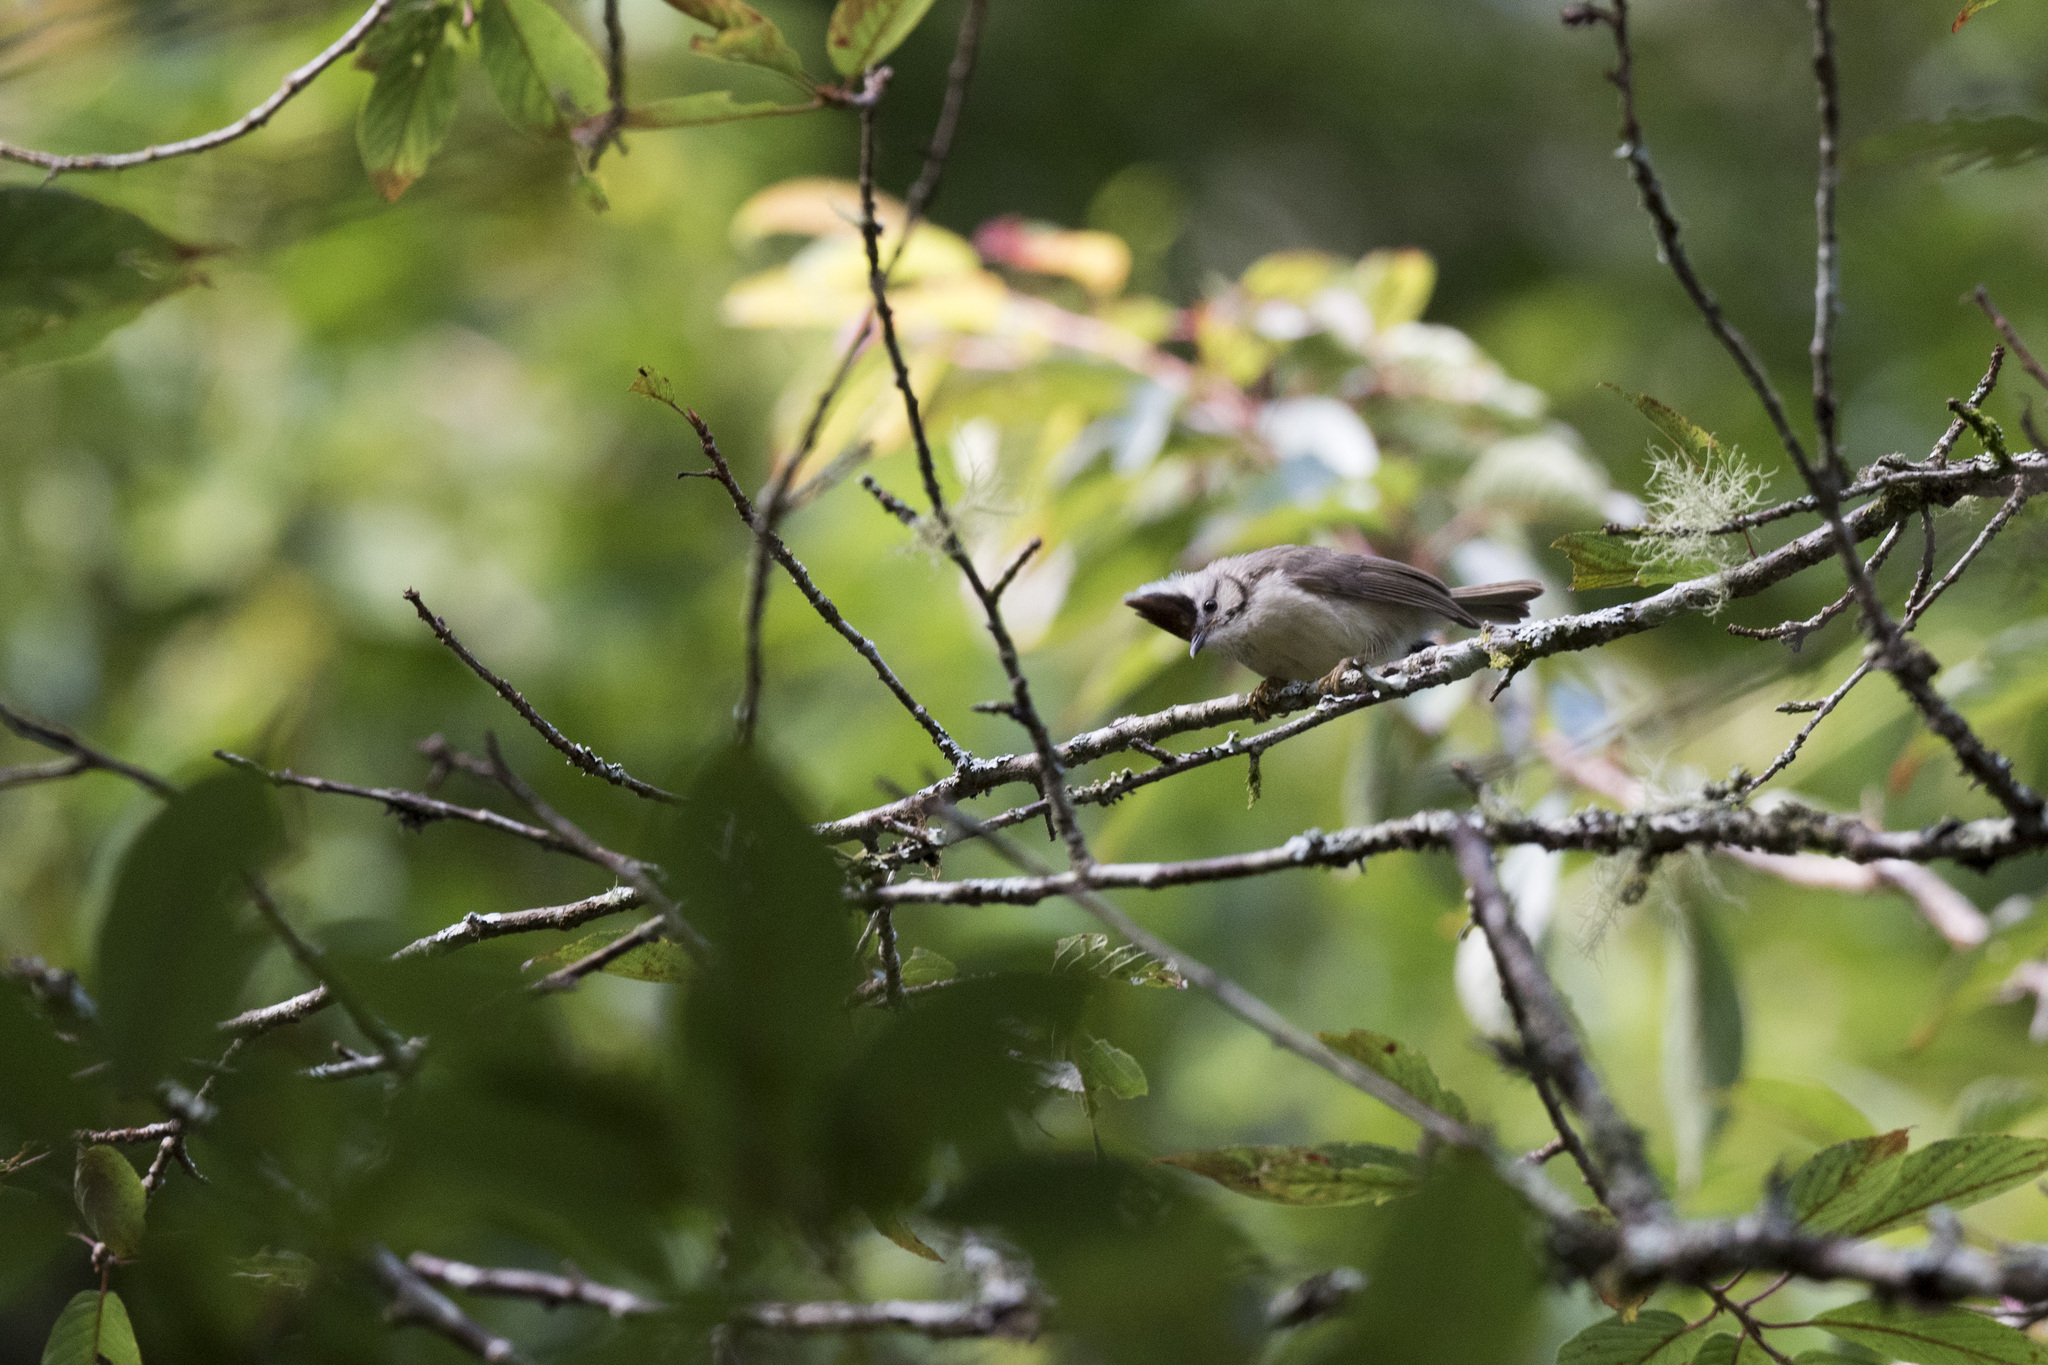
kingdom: Animalia
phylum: Chordata
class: Aves
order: Passeriformes
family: Zosteropidae
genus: Yuhina
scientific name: Yuhina brunneiceps
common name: Taiwan yuhina
